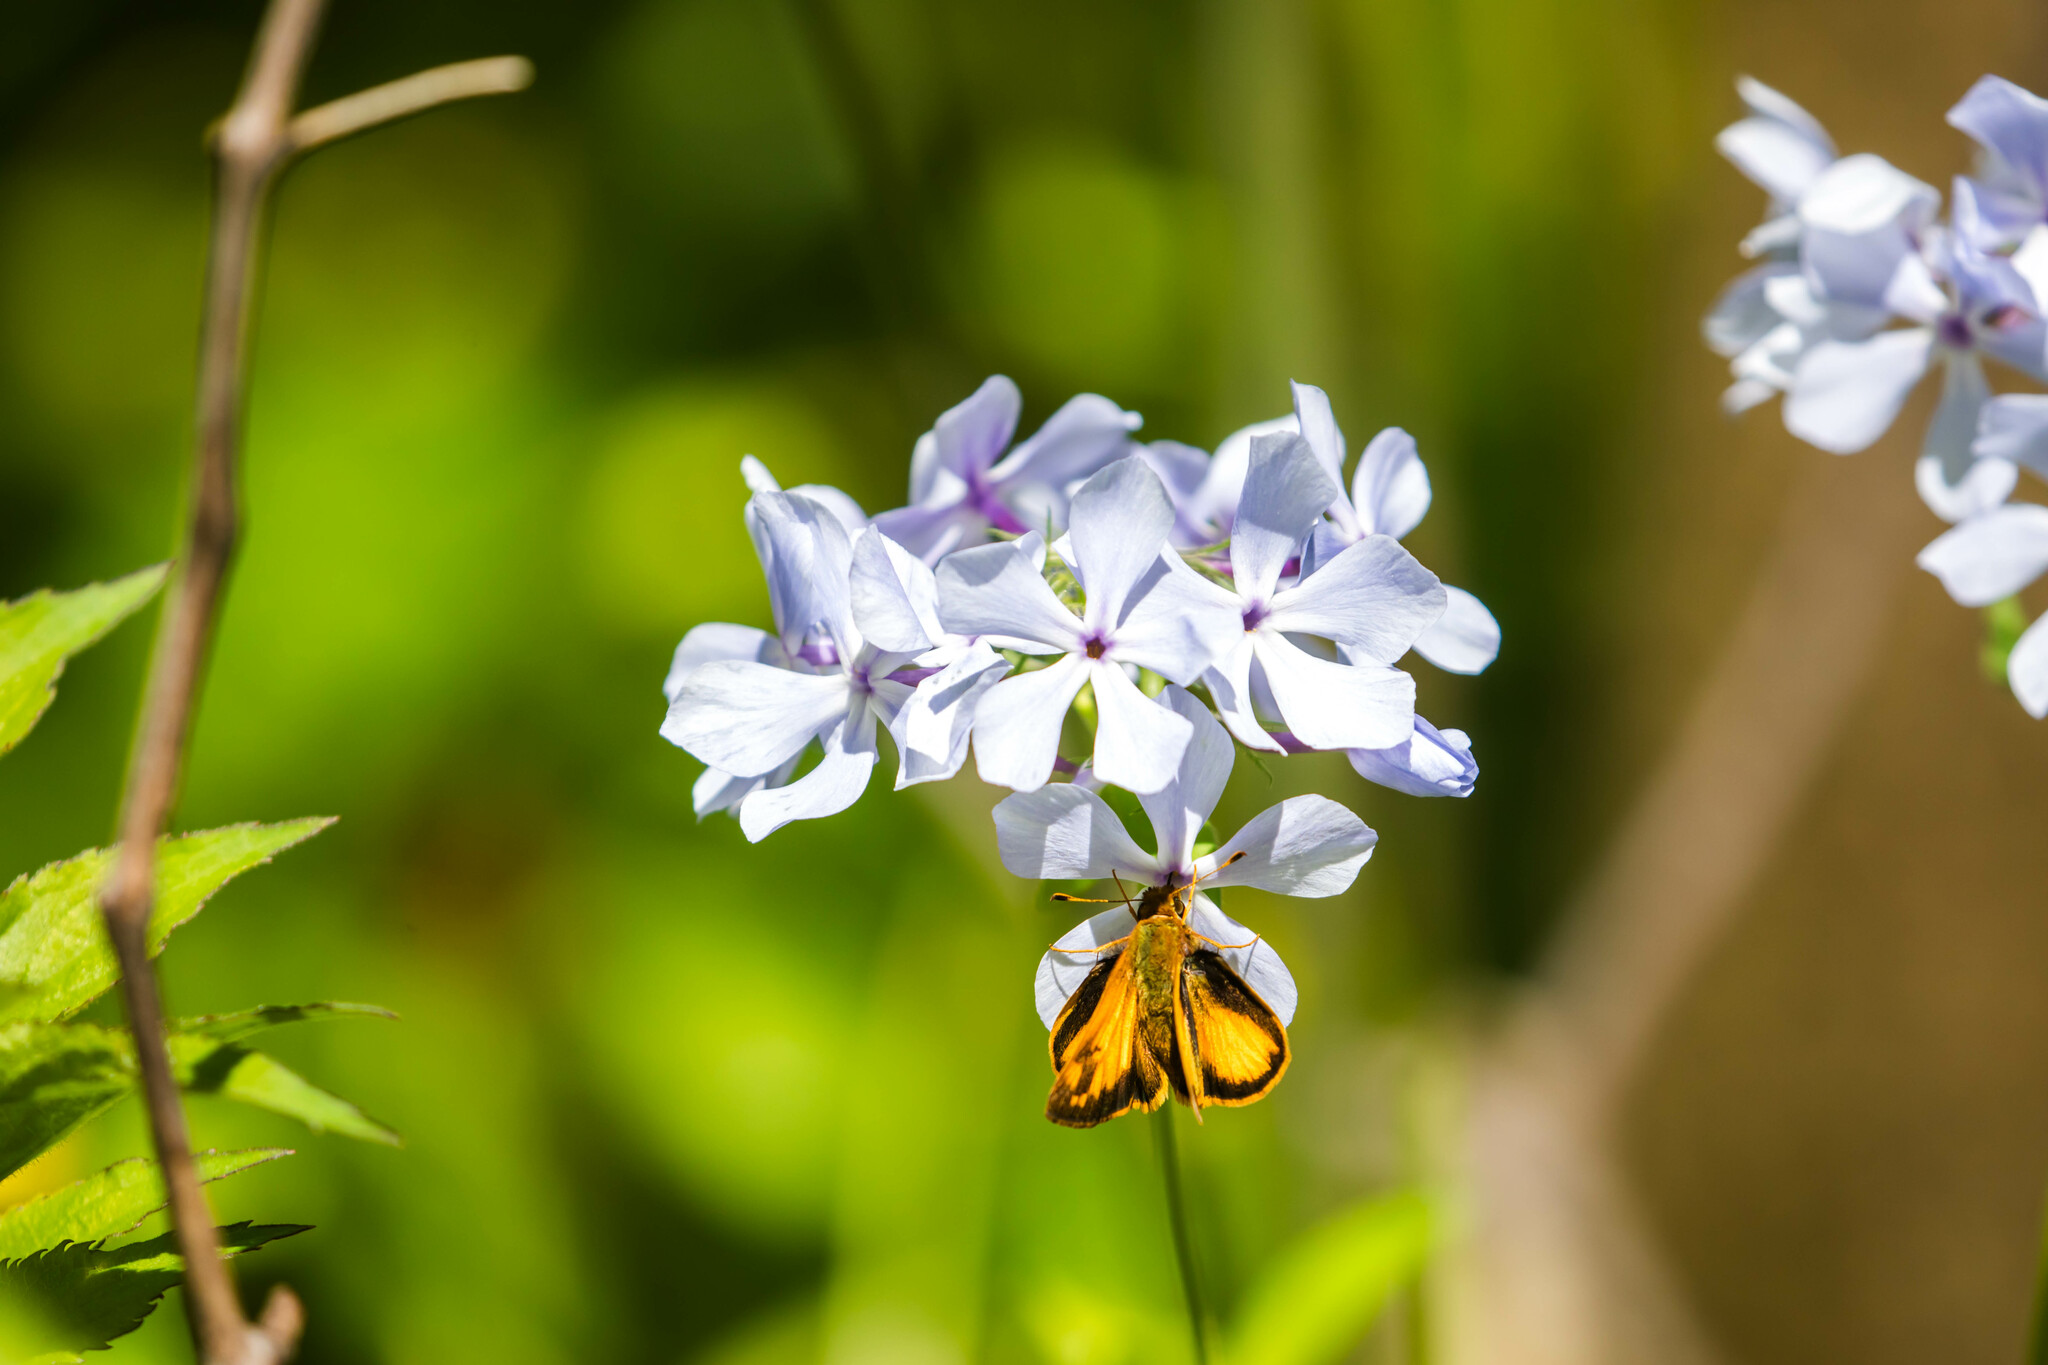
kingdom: Animalia
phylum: Arthropoda
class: Insecta
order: Lepidoptera
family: Hesperiidae
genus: Lon
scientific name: Lon zabulon
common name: Zabulon skipper
